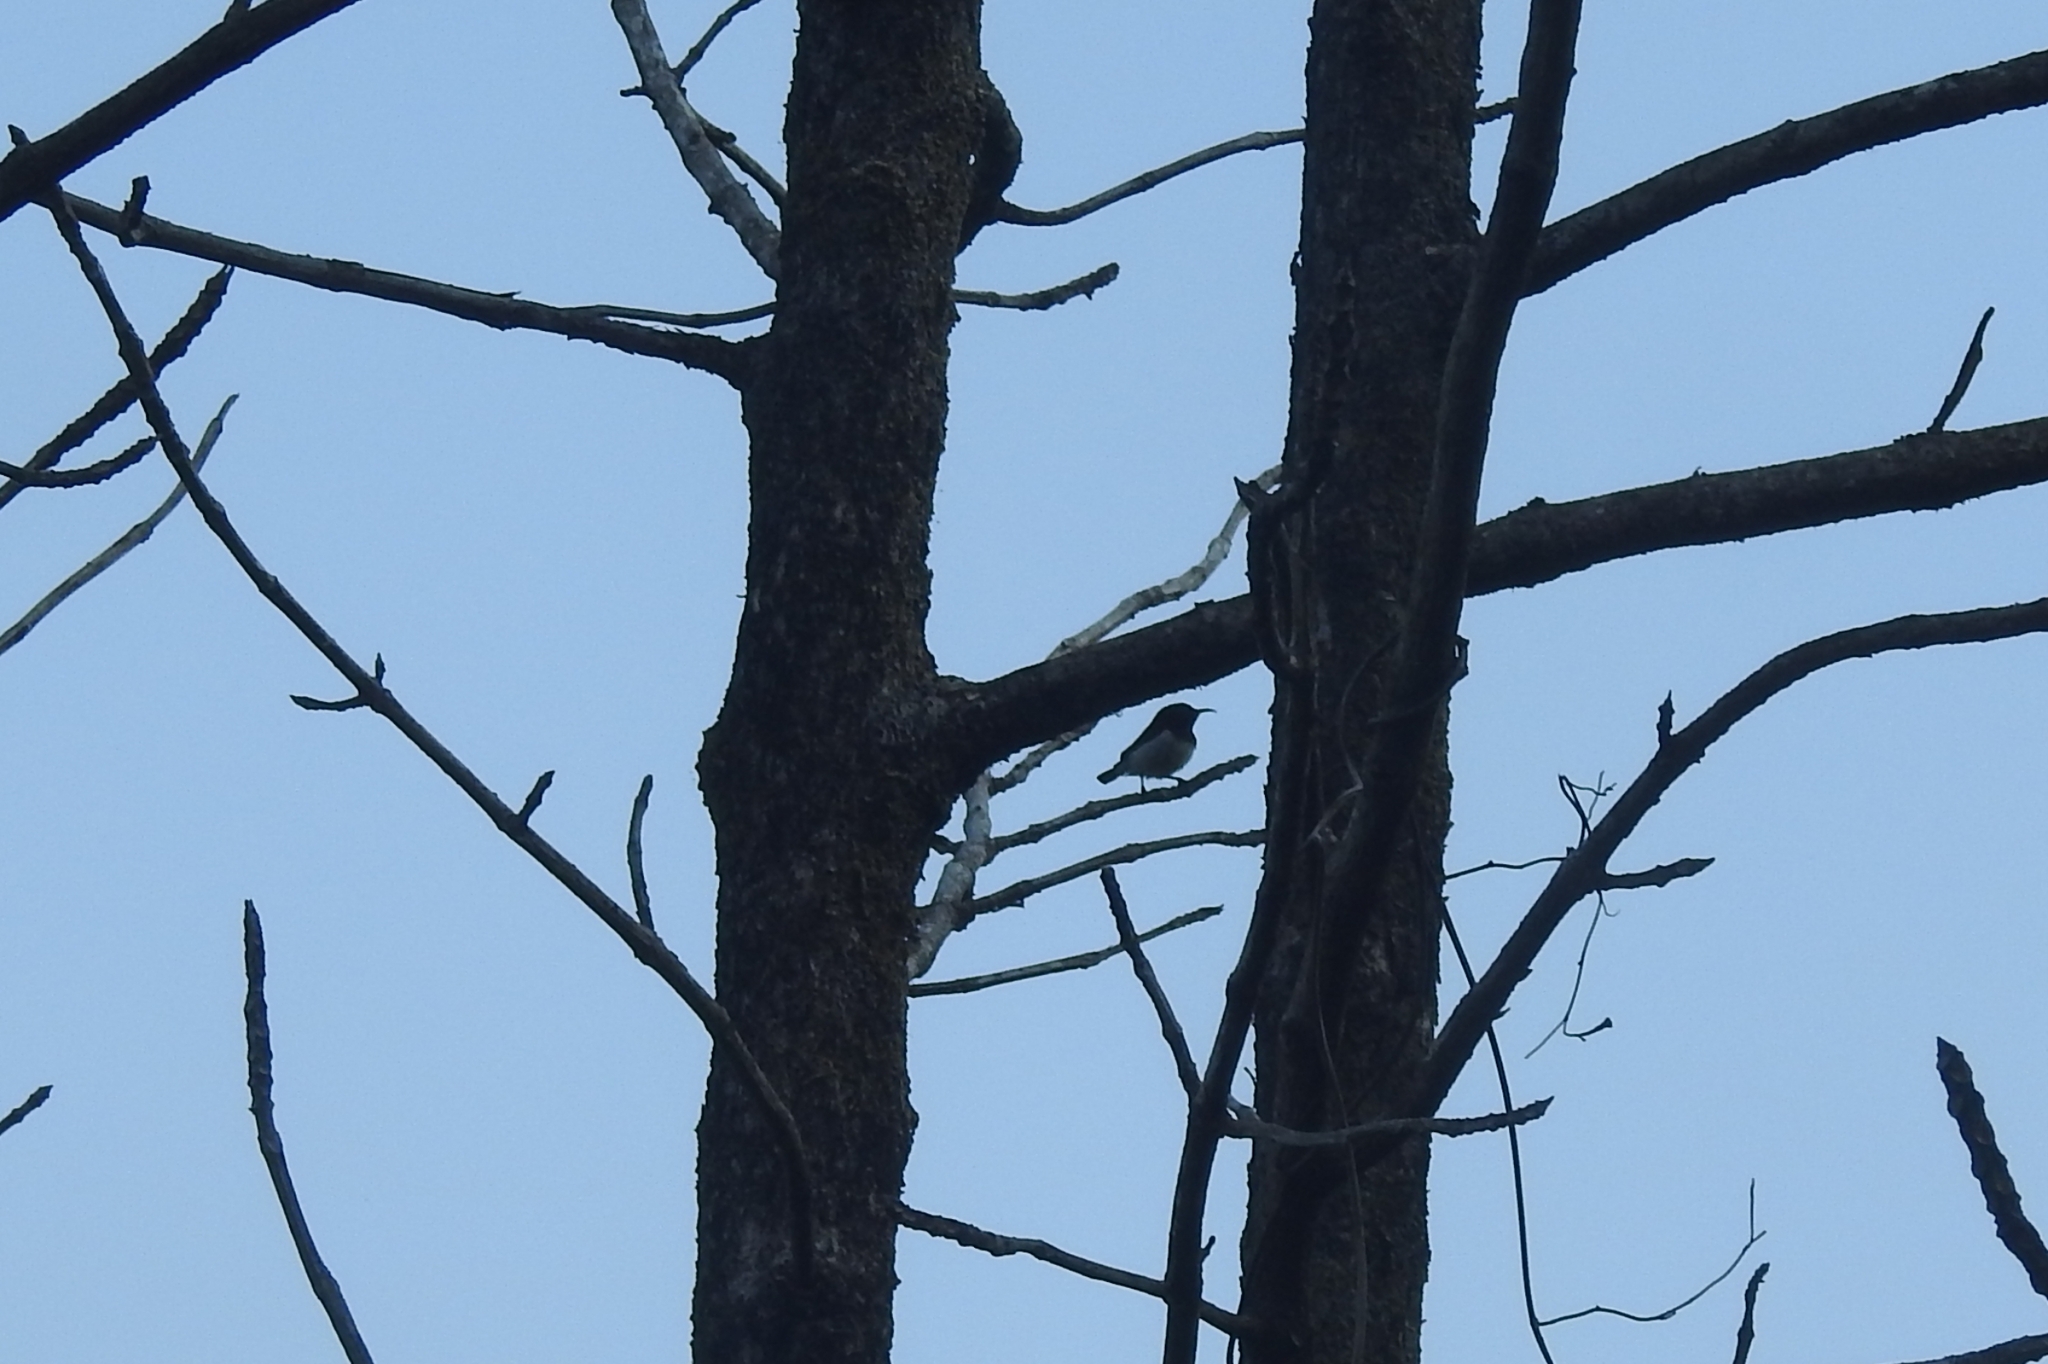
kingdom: Animalia
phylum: Chordata
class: Aves
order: Passeriformes
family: Nectariniidae
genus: Leptocoma
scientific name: Leptocoma zeylonica
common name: Purple-rumped sunbird
